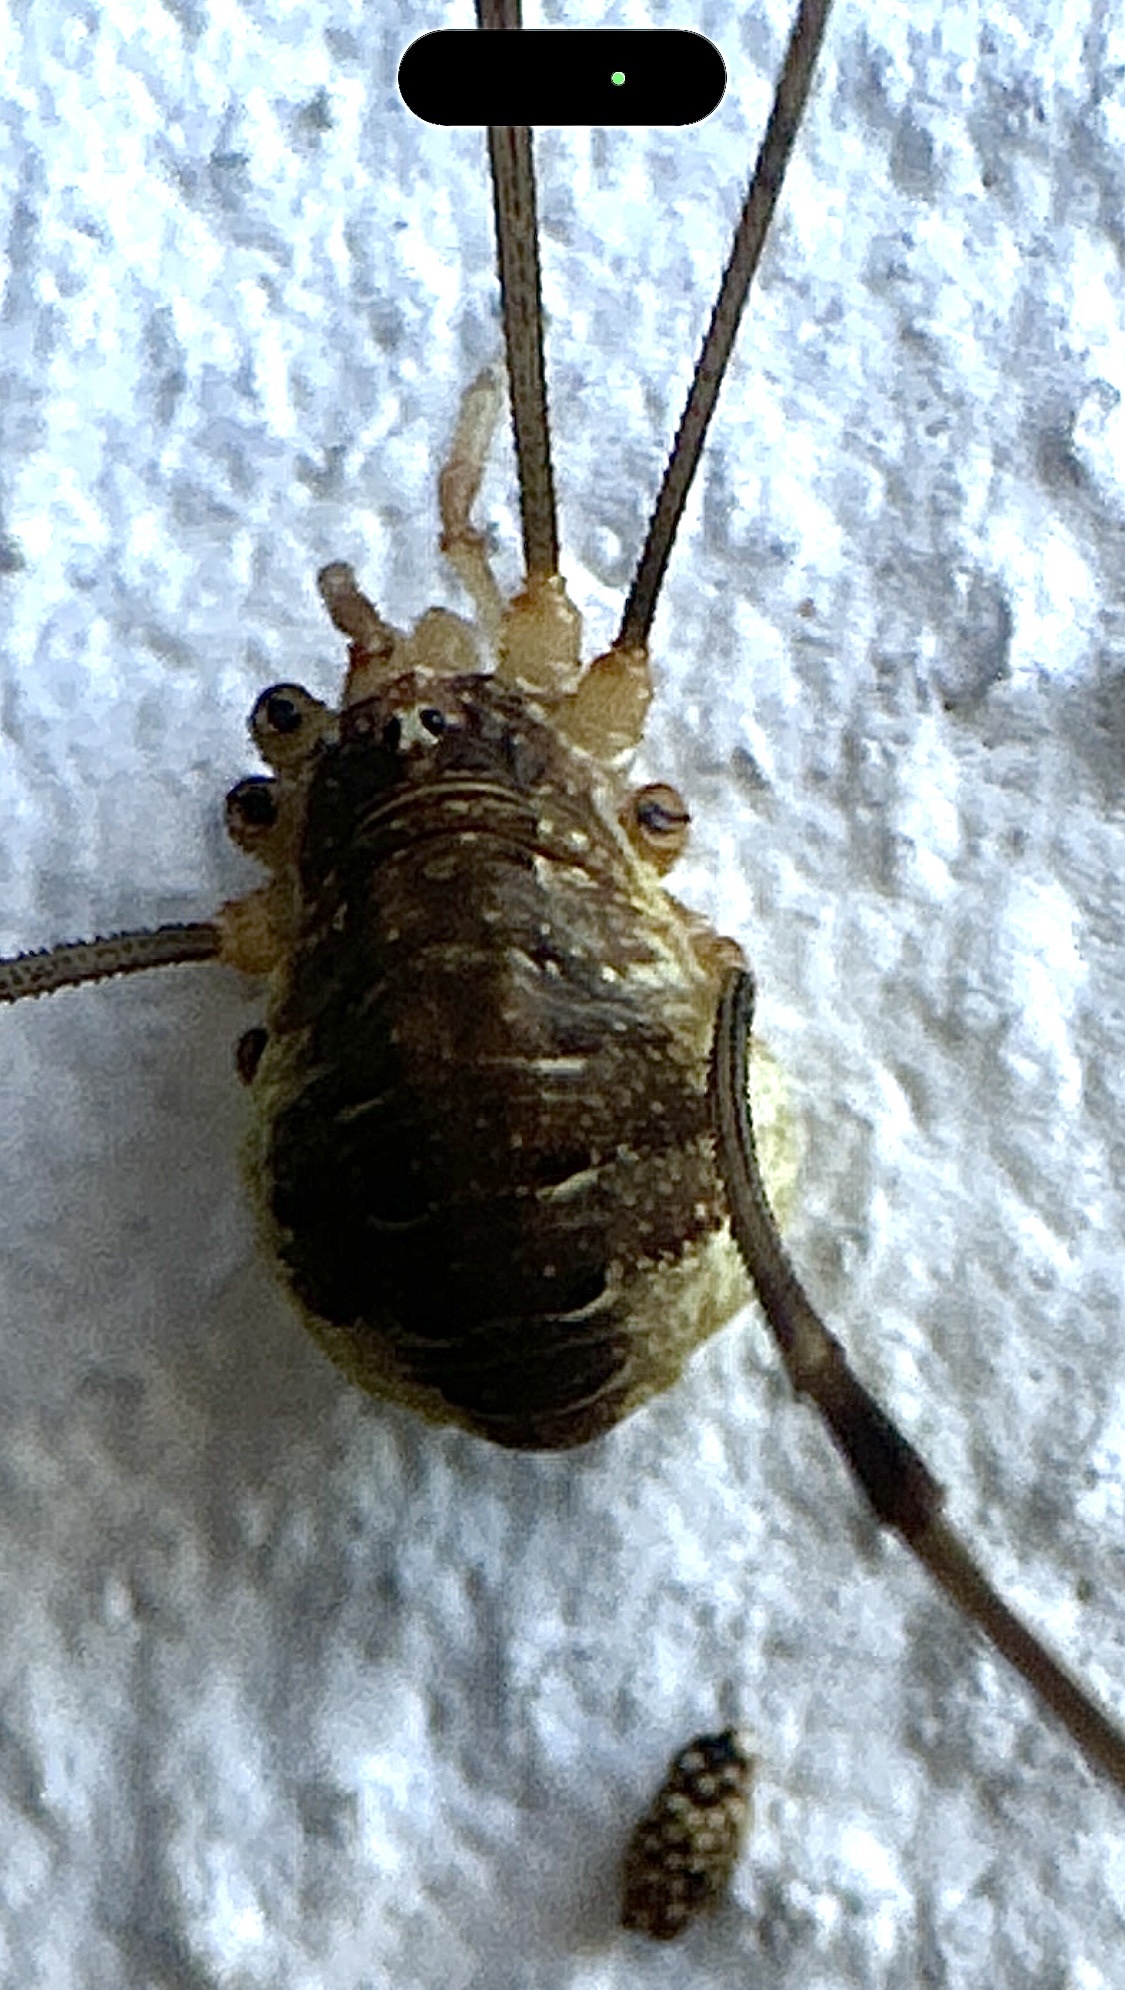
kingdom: Animalia
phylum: Arthropoda
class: Arachnida
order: Opiliones
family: Phalangiidae
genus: Opilio
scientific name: Opilio canestrinii
